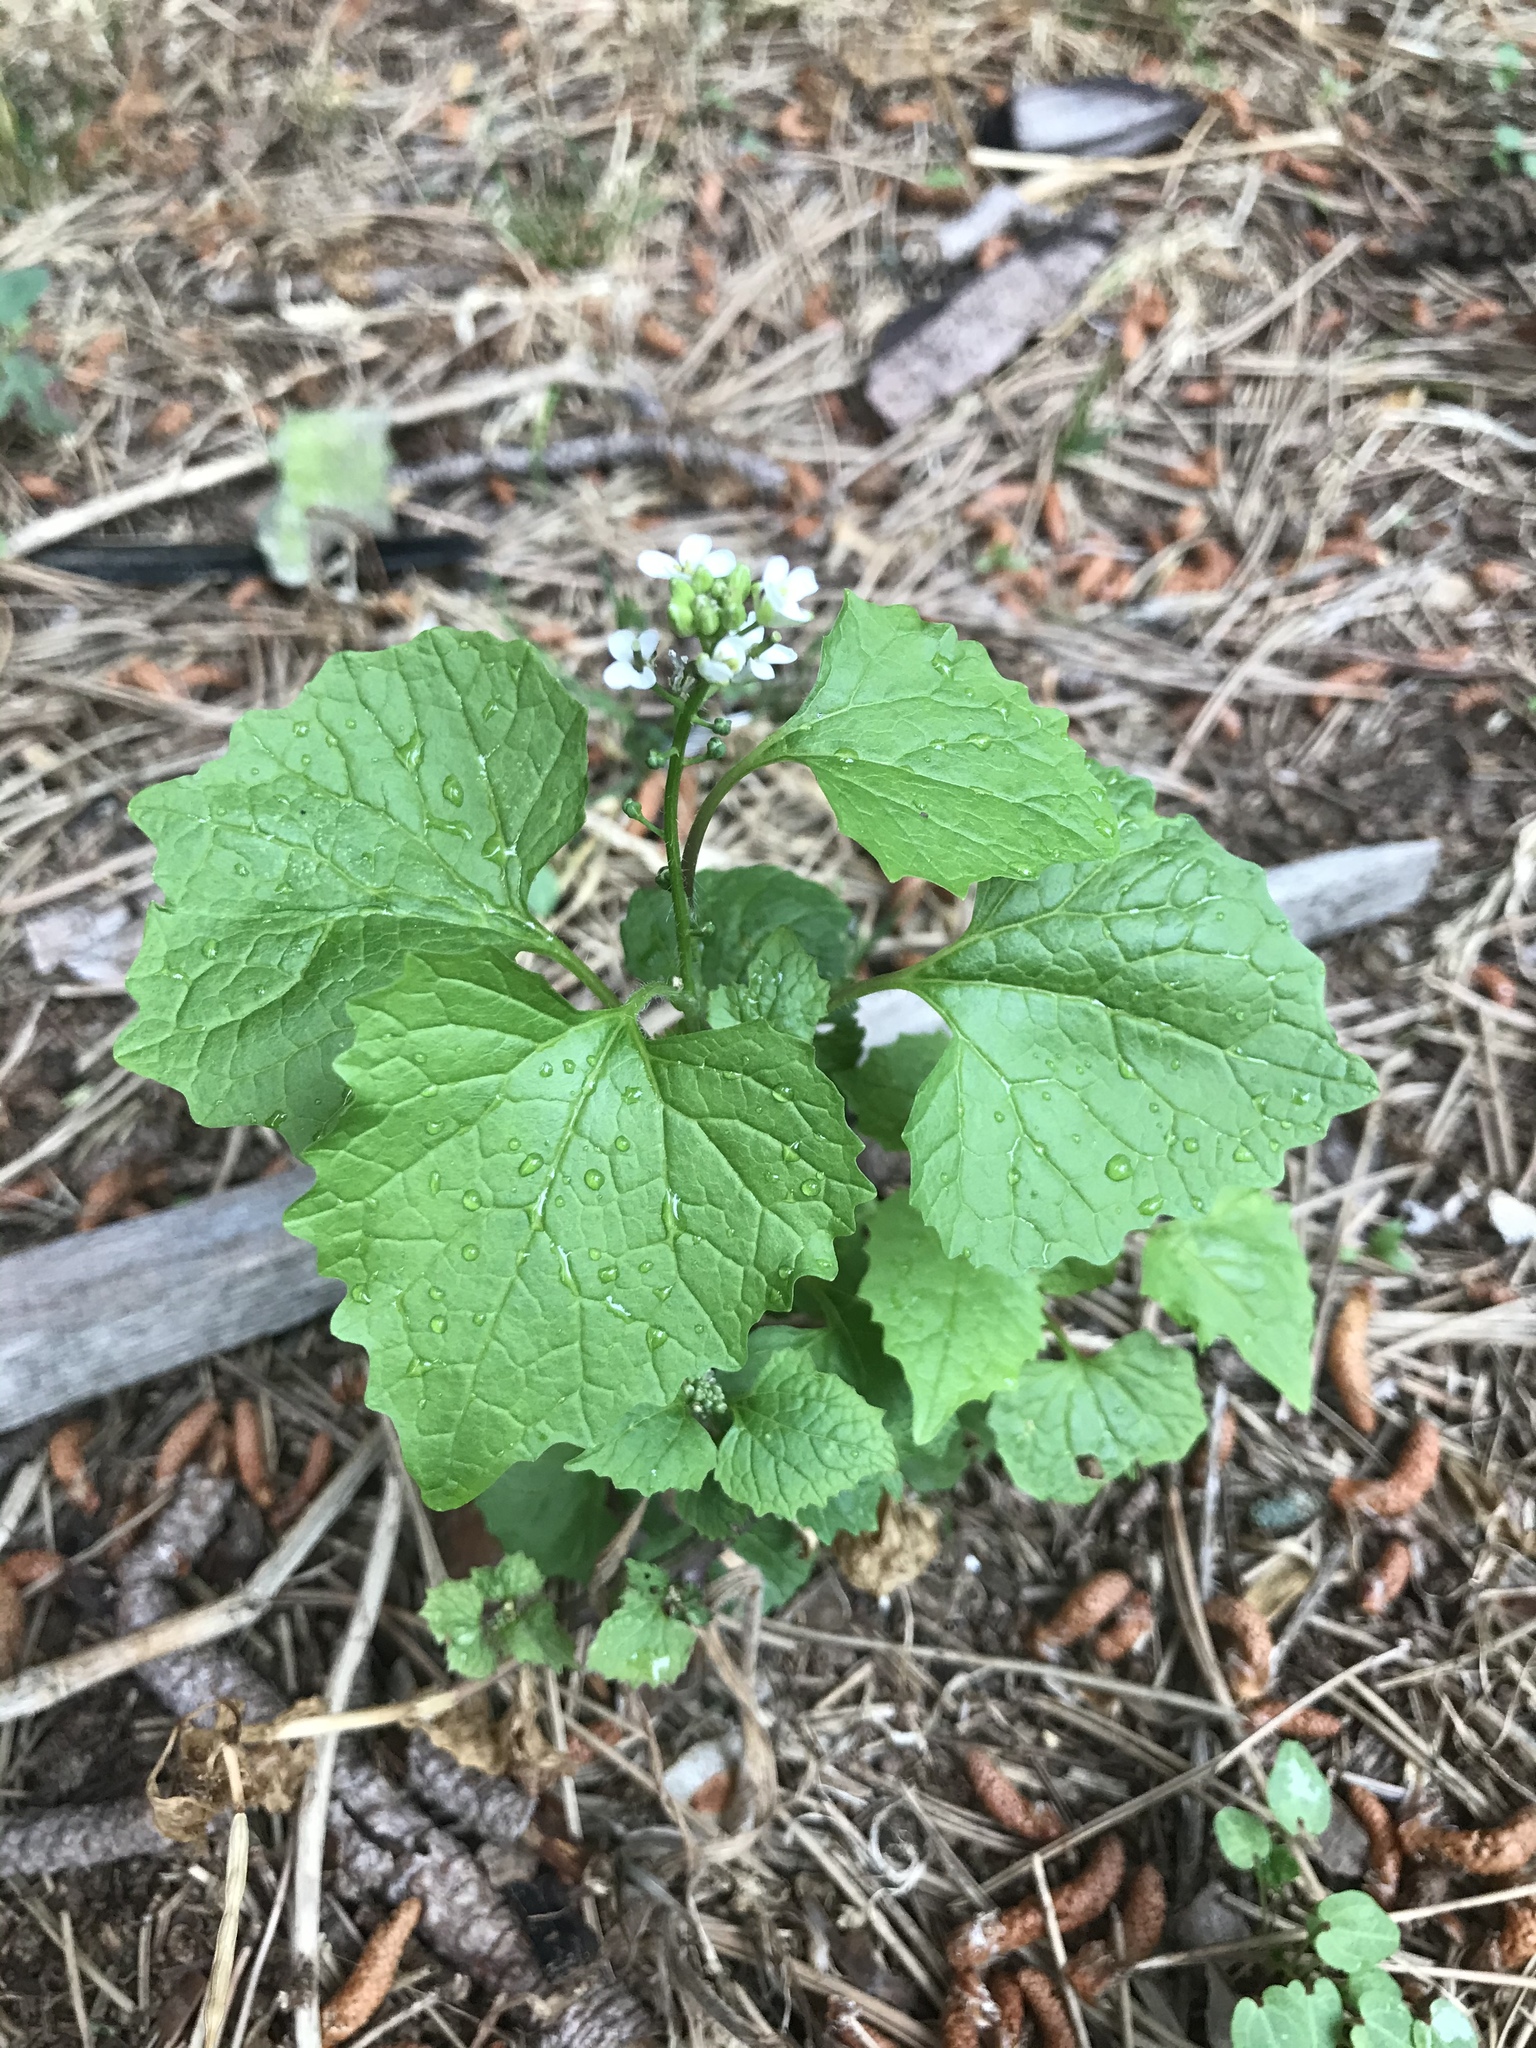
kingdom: Plantae
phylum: Tracheophyta
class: Magnoliopsida
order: Brassicales
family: Brassicaceae
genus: Alliaria
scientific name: Alliaria petiolata
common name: Garlic mustard
